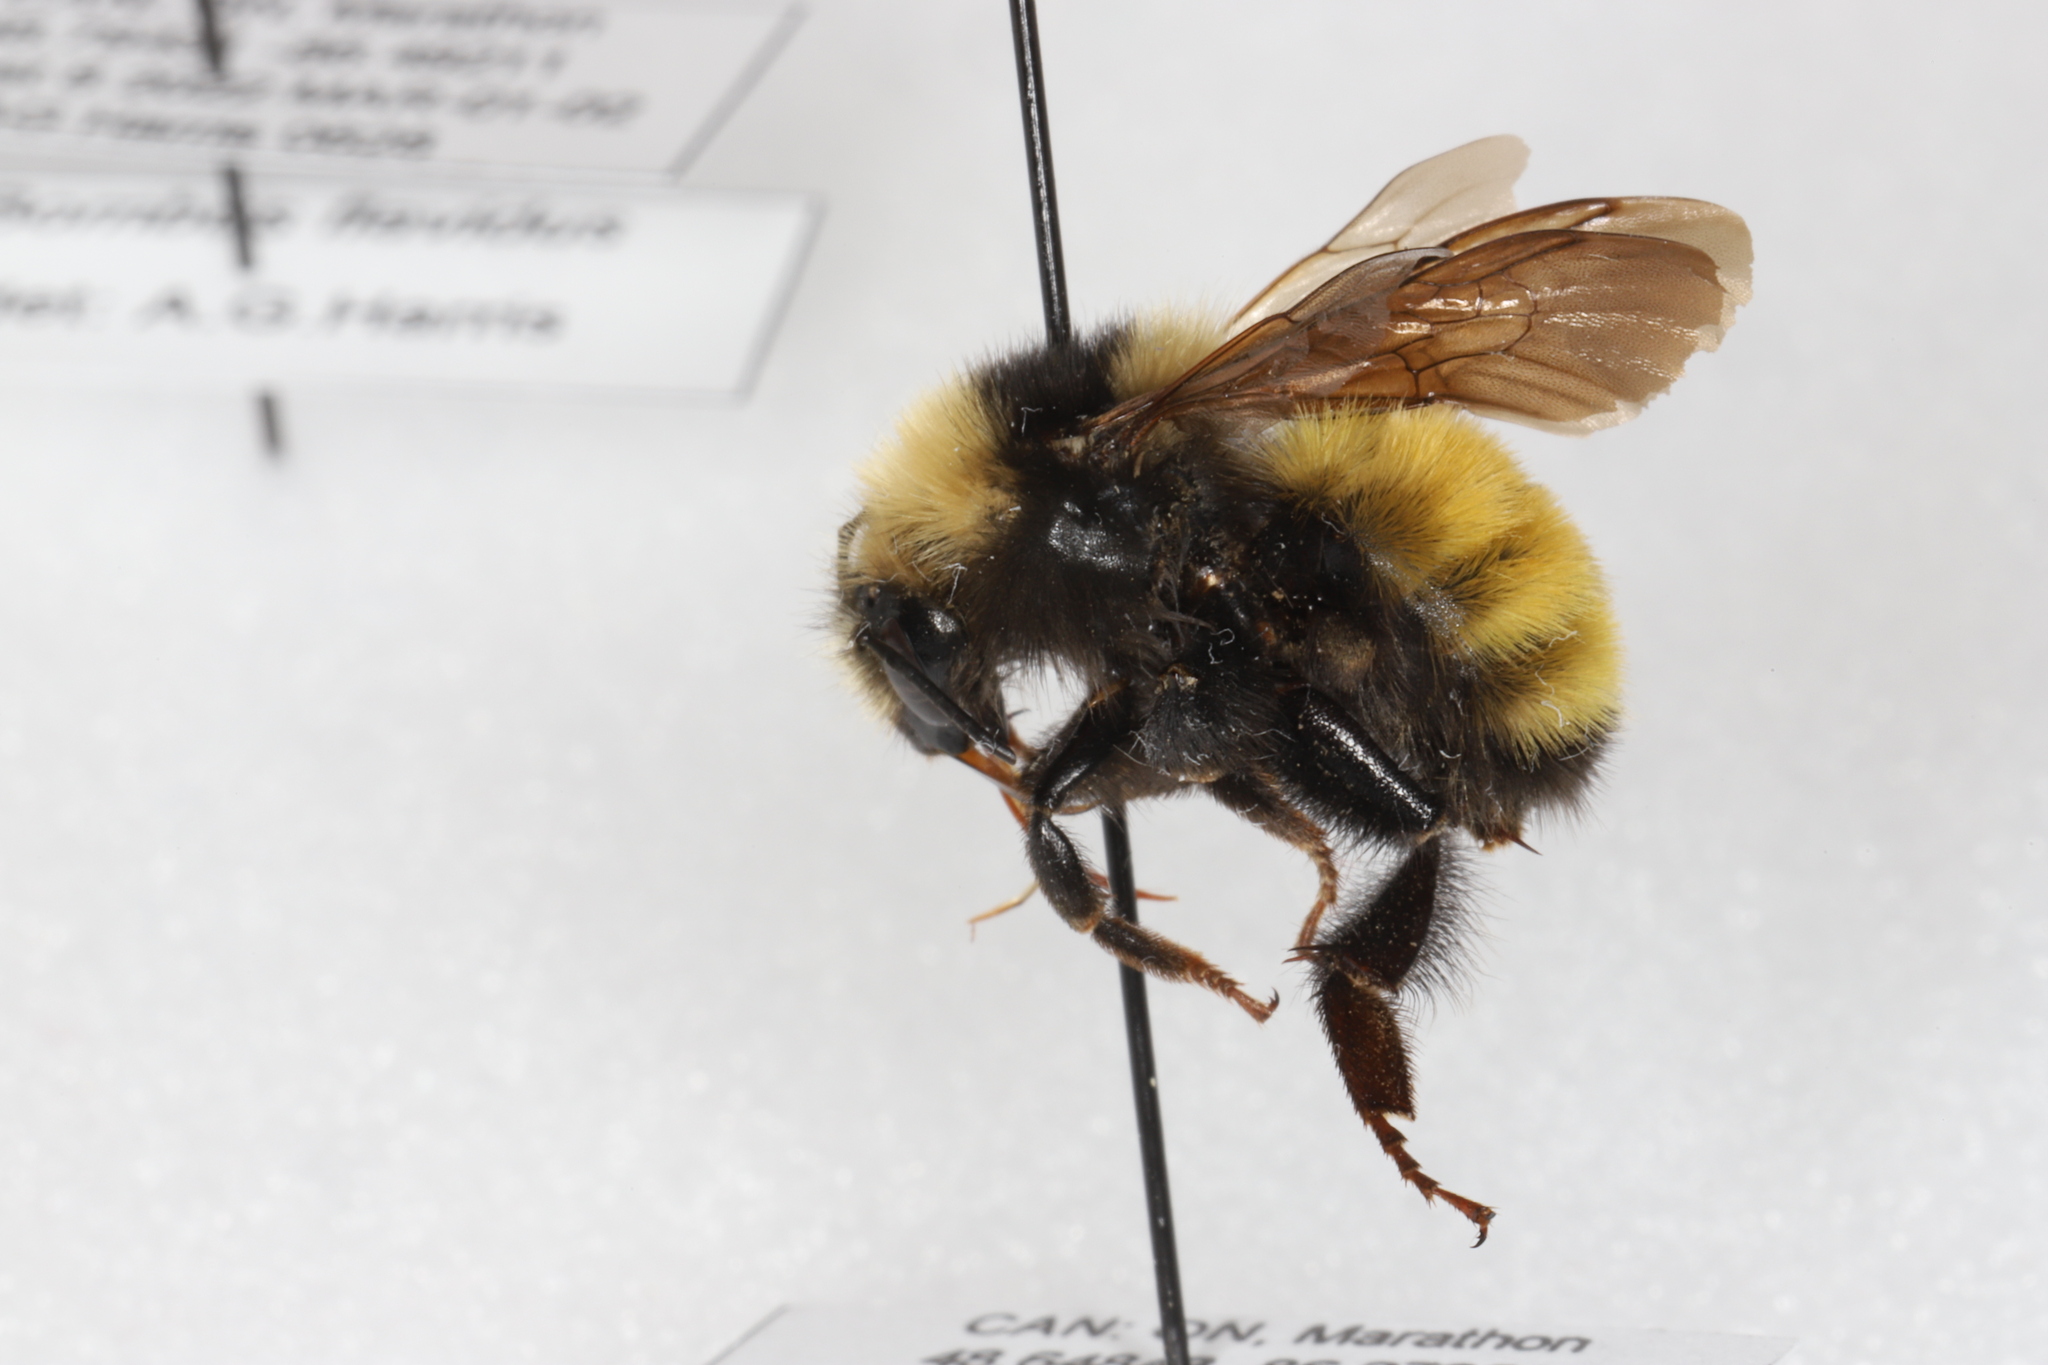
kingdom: Animalia
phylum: Arthropoda
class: Insecta
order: Hymenoptera
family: Apidae
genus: Bombus
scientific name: Bombus borealis
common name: Northern amber bumble bee
